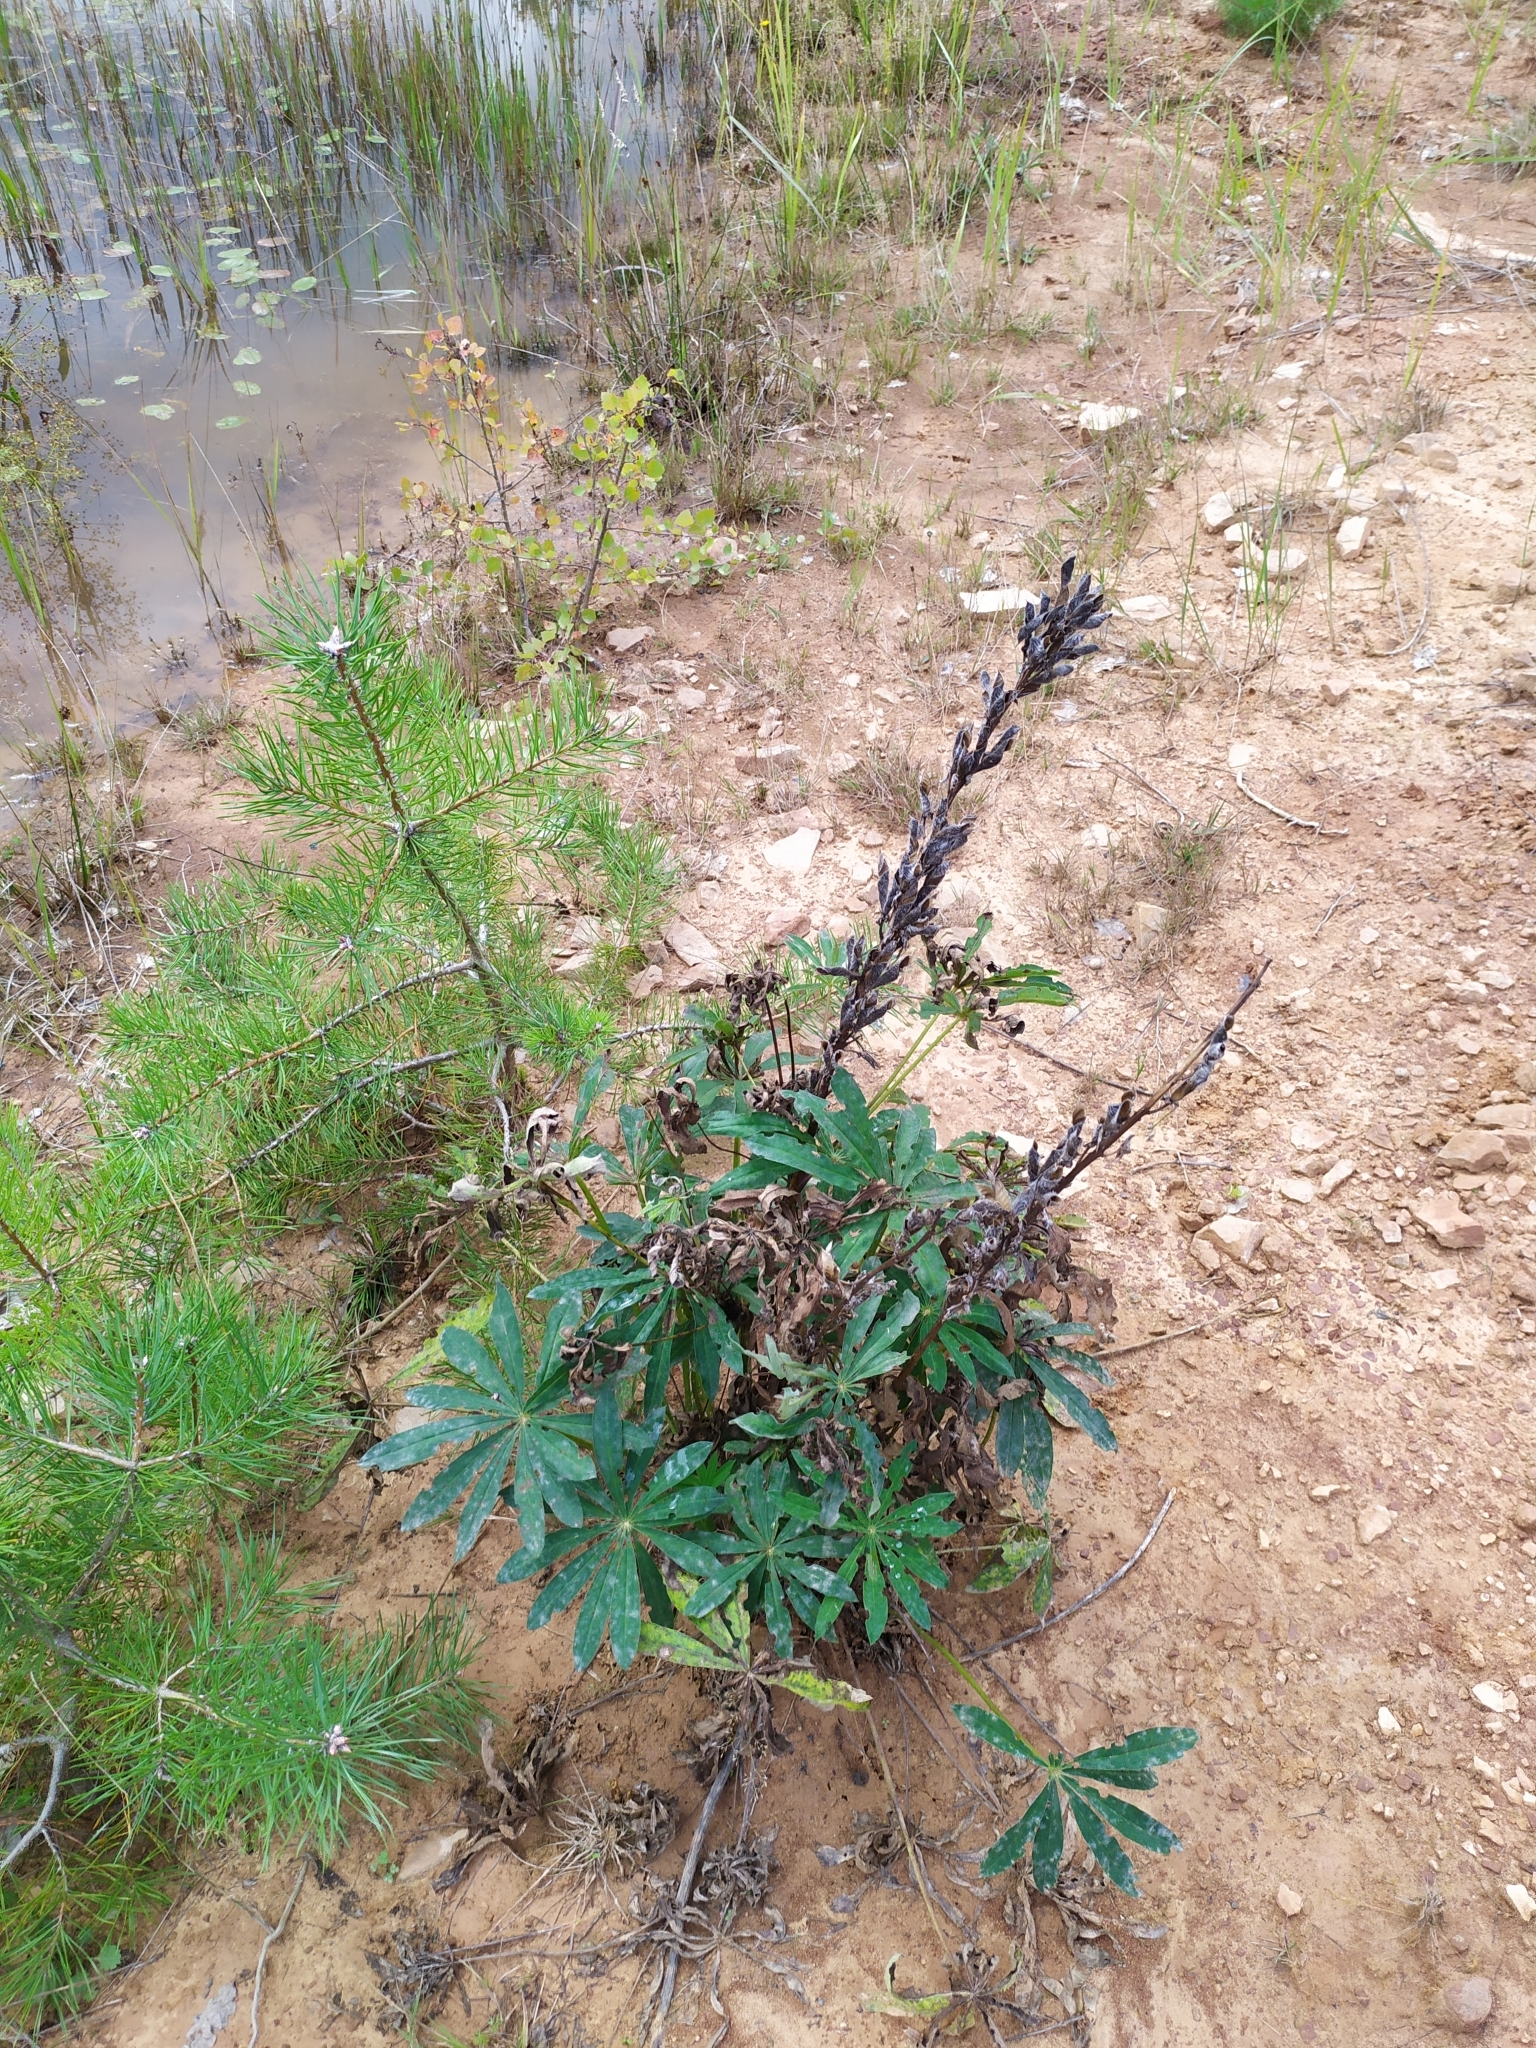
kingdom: Plantae
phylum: Tracheophyta
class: Magnoliopsida
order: Fabales
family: Fabaceae
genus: Lupinus
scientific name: Lupinus polyphyllus
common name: Garden lupin
